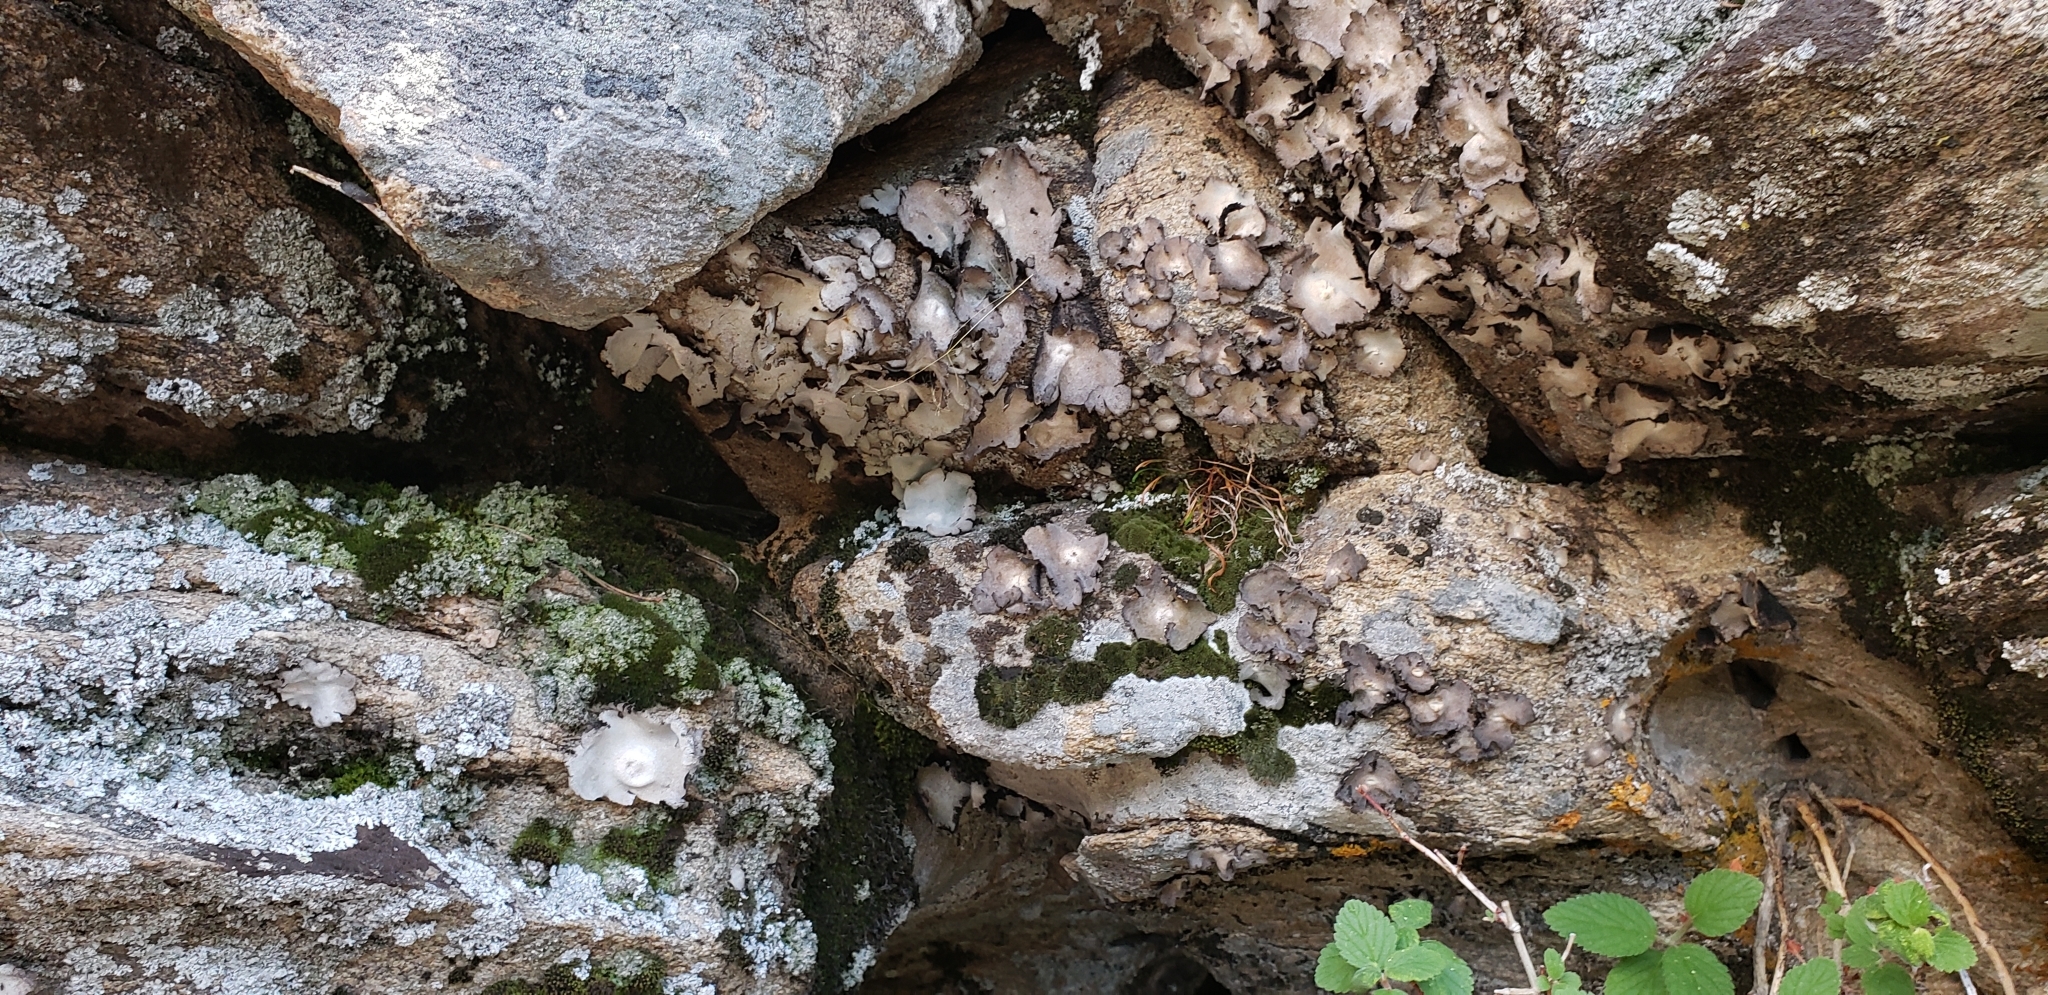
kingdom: Fungi
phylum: Ascomycota
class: Lecanoromycetes
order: Umbilicariales
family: Umbilicariaceae
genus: Umbilicaria
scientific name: Umbilicaria americana
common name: Frosted rock tripe
